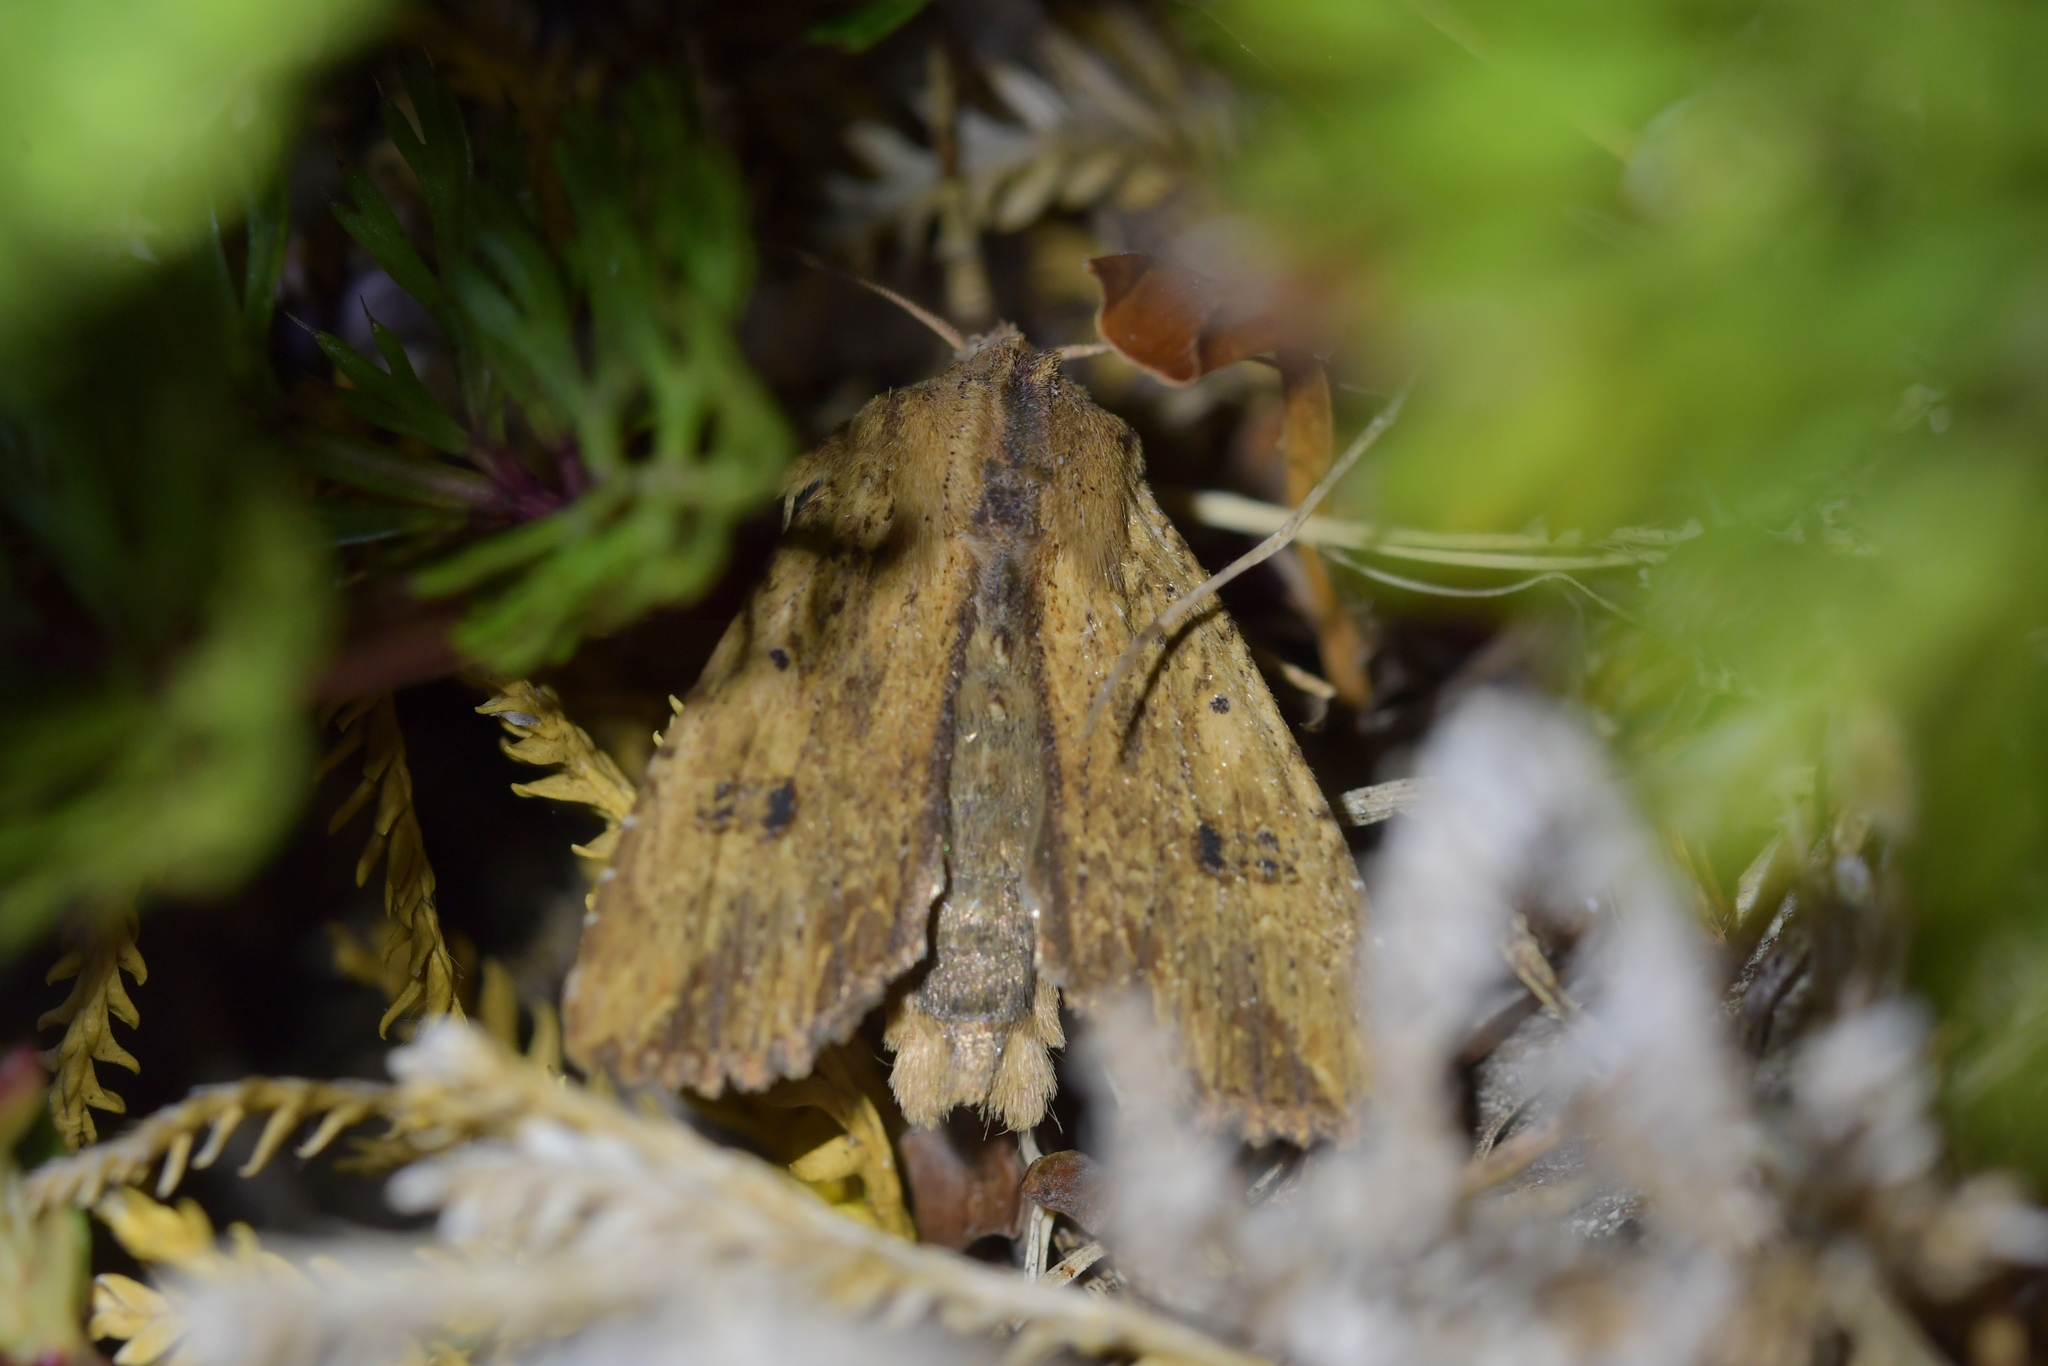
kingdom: Animalia
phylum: Arthropoda
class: Insecta
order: Lepidoptera
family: Noctuidae
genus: Ichneutica
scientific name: Ichneutica
